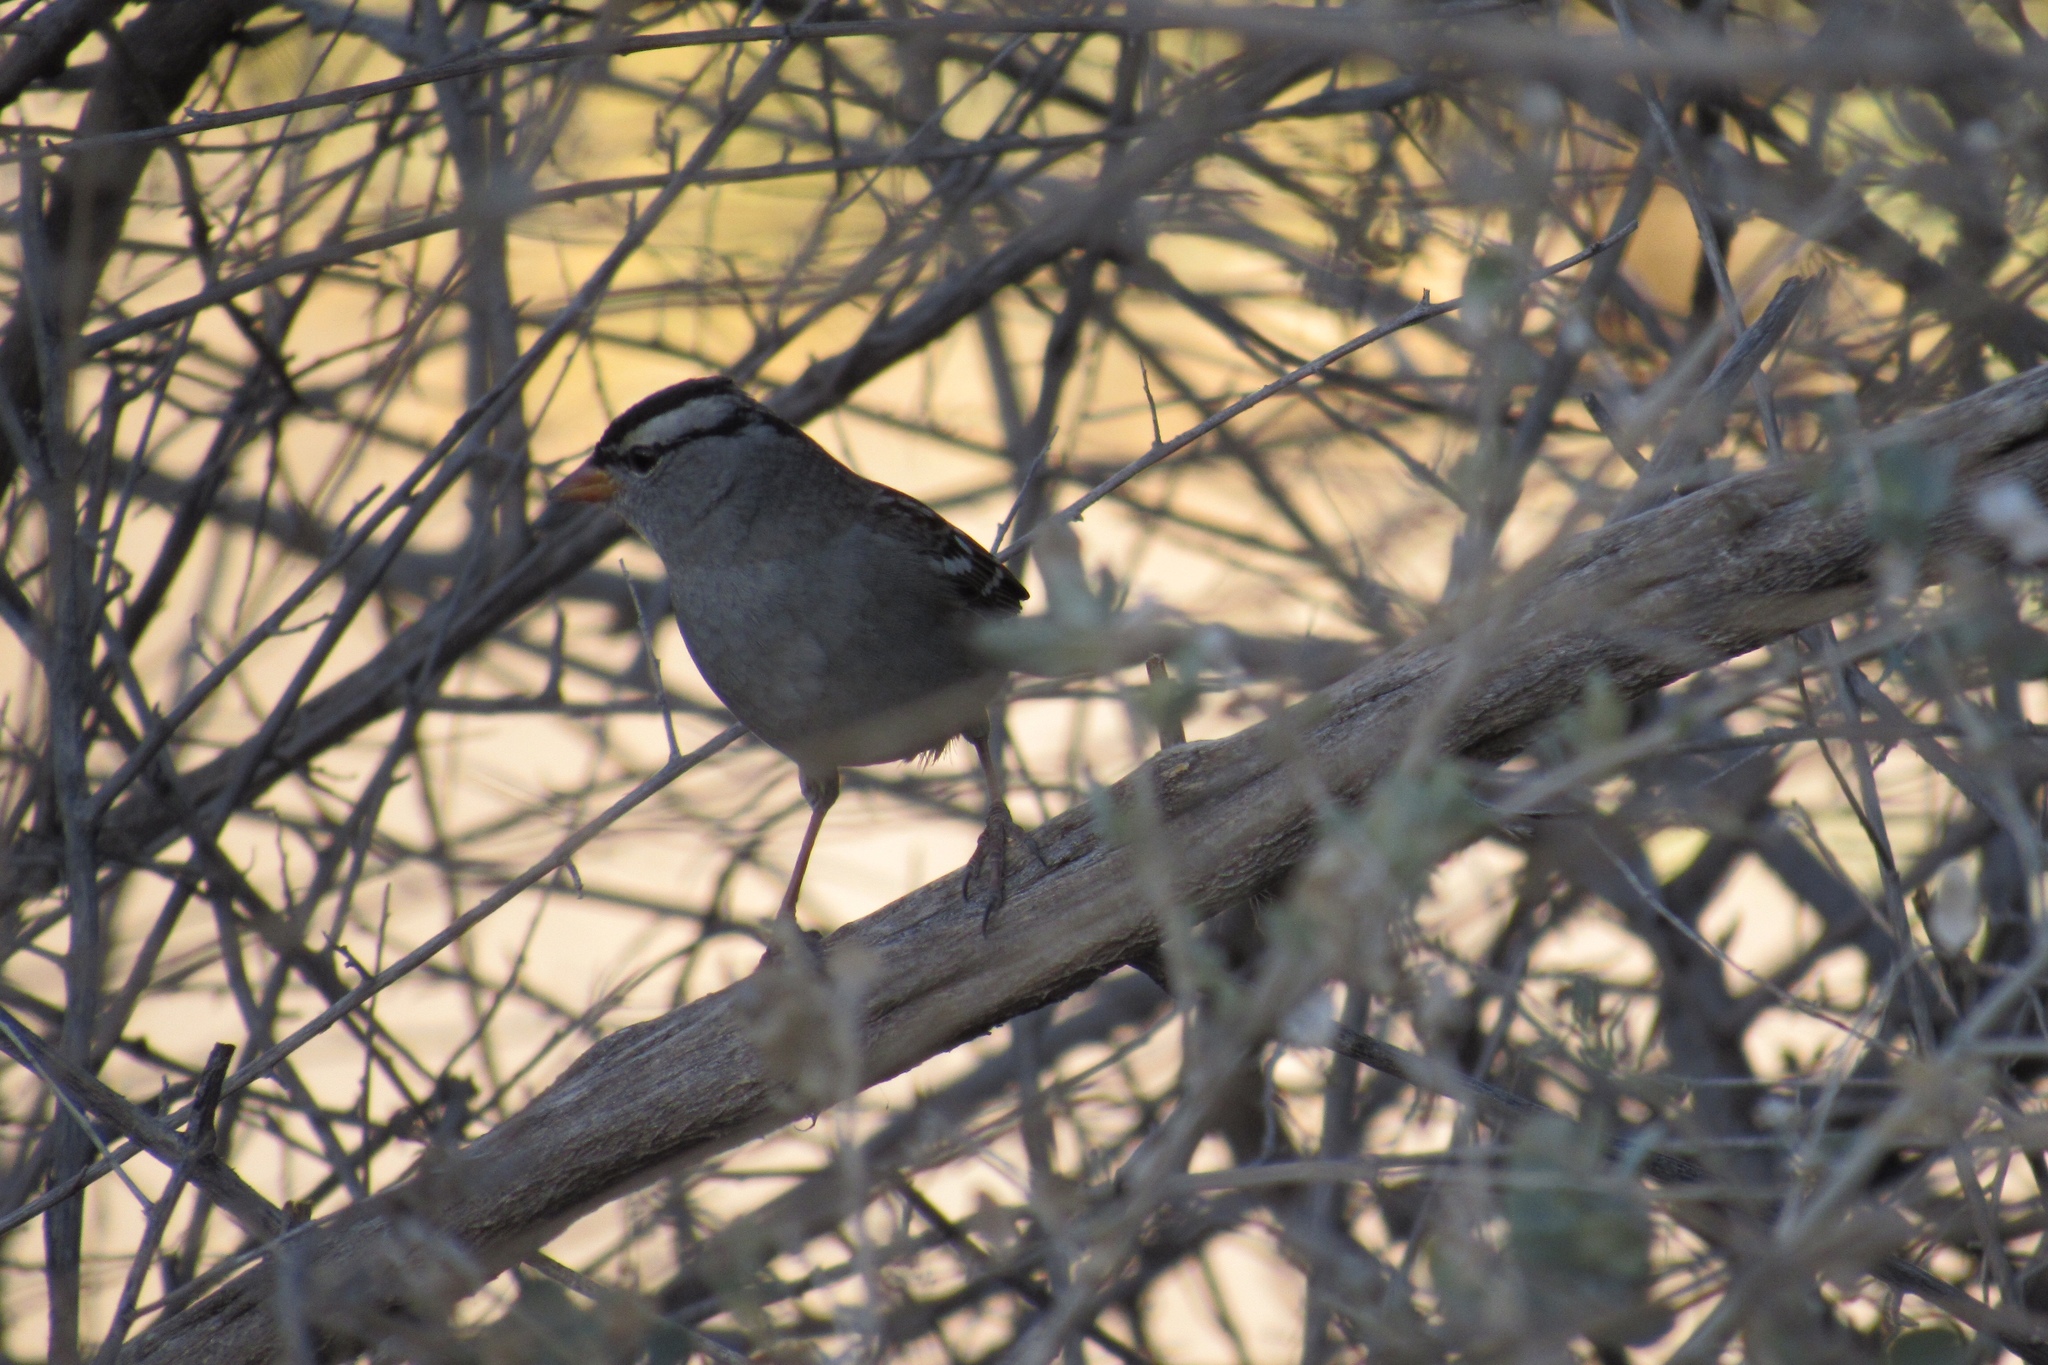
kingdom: Animalia
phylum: Chordata
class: Aves
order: Passeriformes
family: Passerellidae
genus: Zonotrichia
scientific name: Zonotrichia leucophrys
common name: White-crowned sparrow
